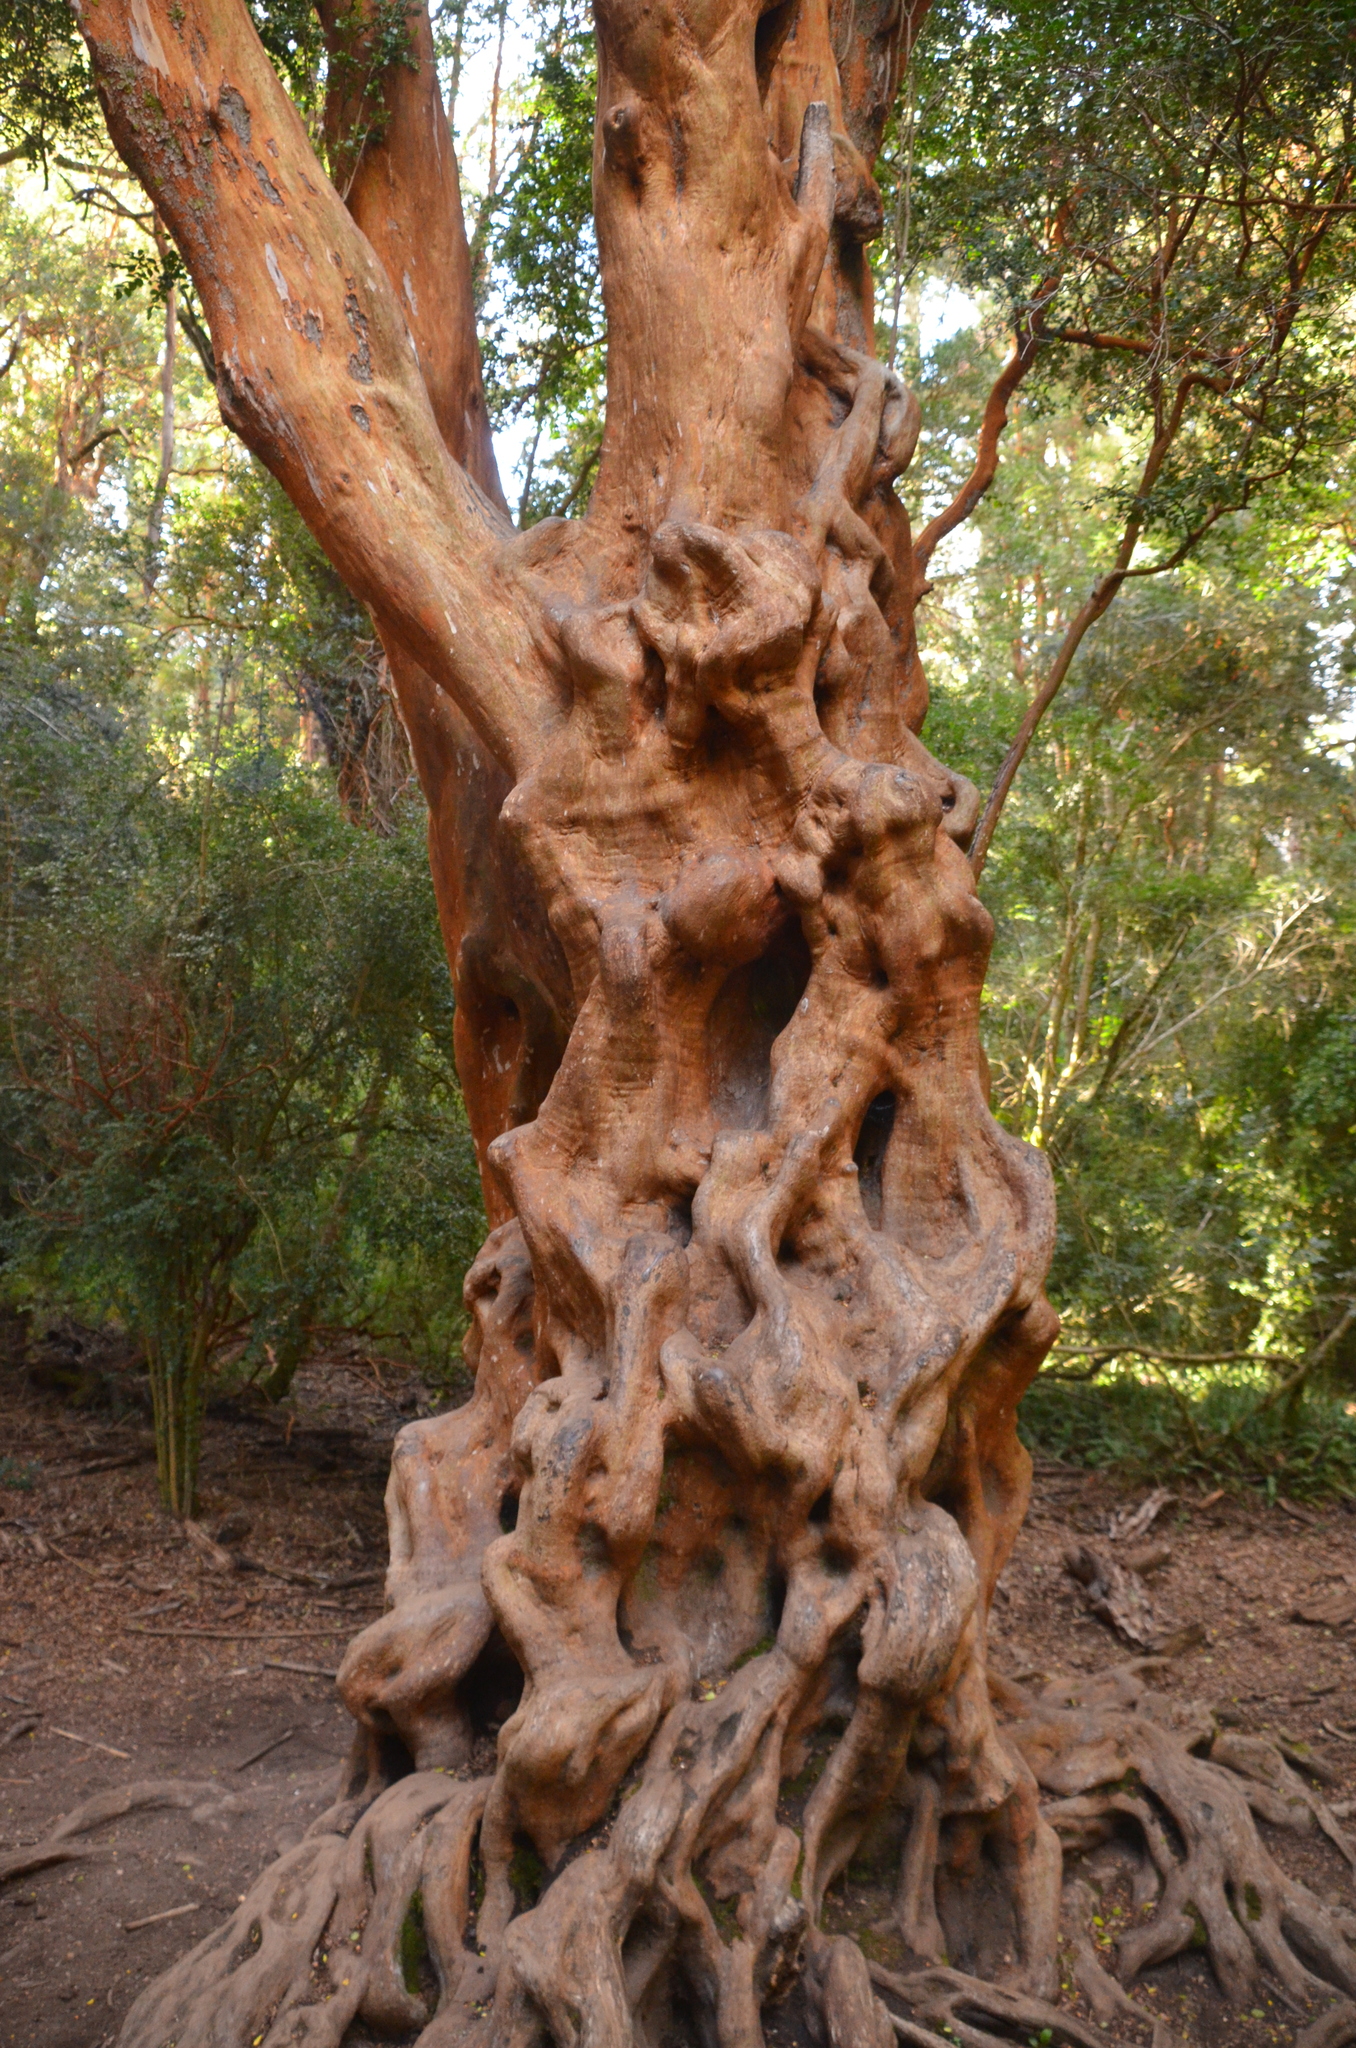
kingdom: Plantae
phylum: Tracheophyta
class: Magnoliopsida
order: Myrtales
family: Myrtaceae
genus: Luma
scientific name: Luma apiculata
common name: Chilean myrtle
